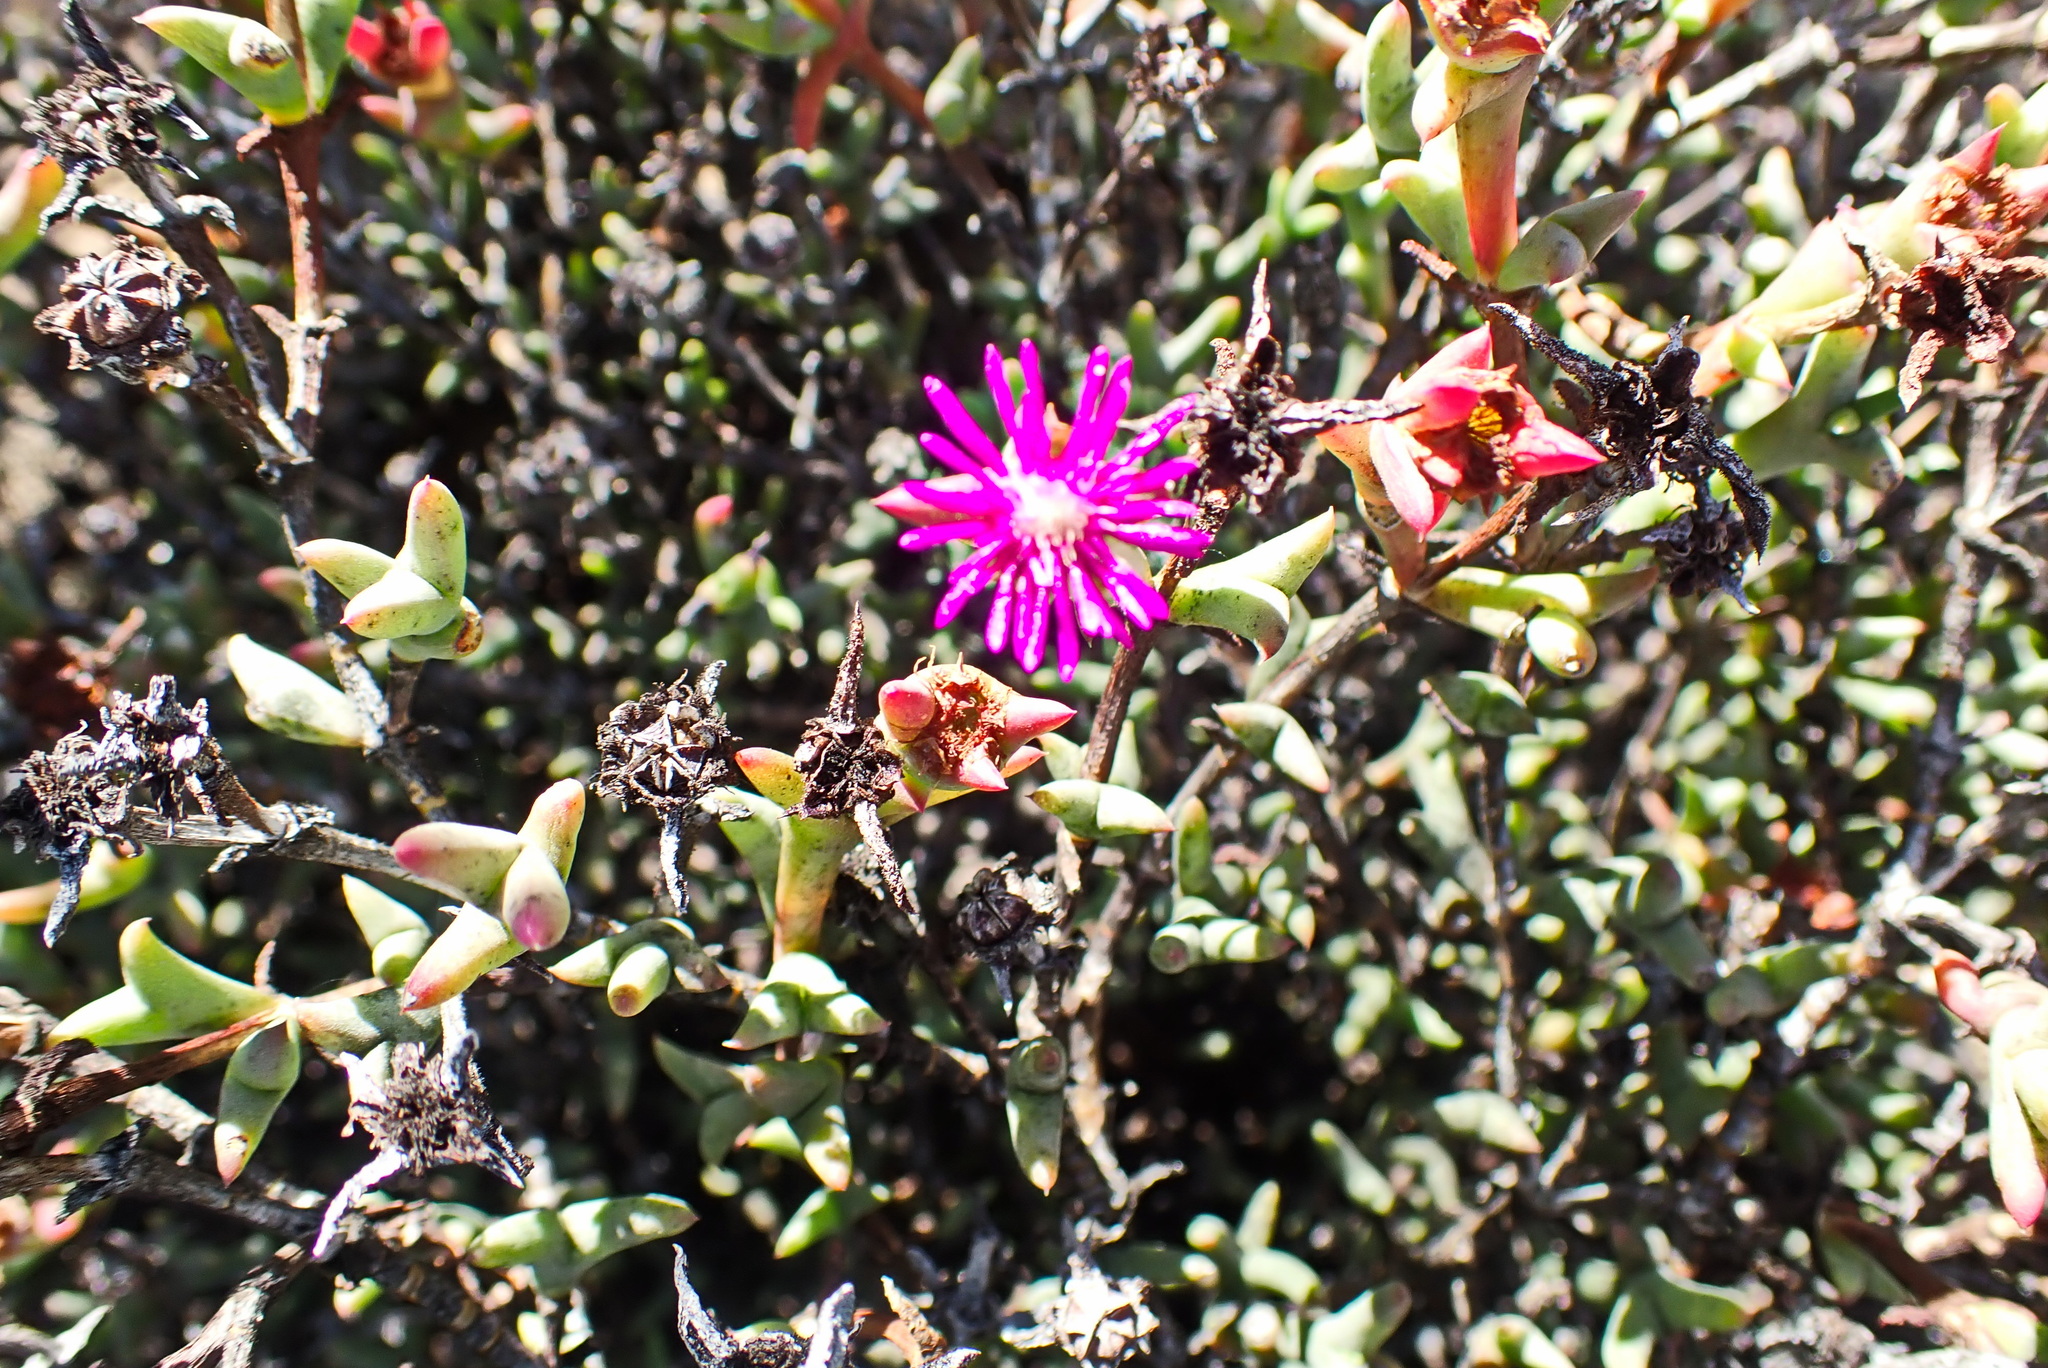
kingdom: Plantae
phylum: Tracheophyta
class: Magnoliopsida
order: Caryophyllales
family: Aizoaceae
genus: Smicrostigma
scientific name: Smicrostigma viride
